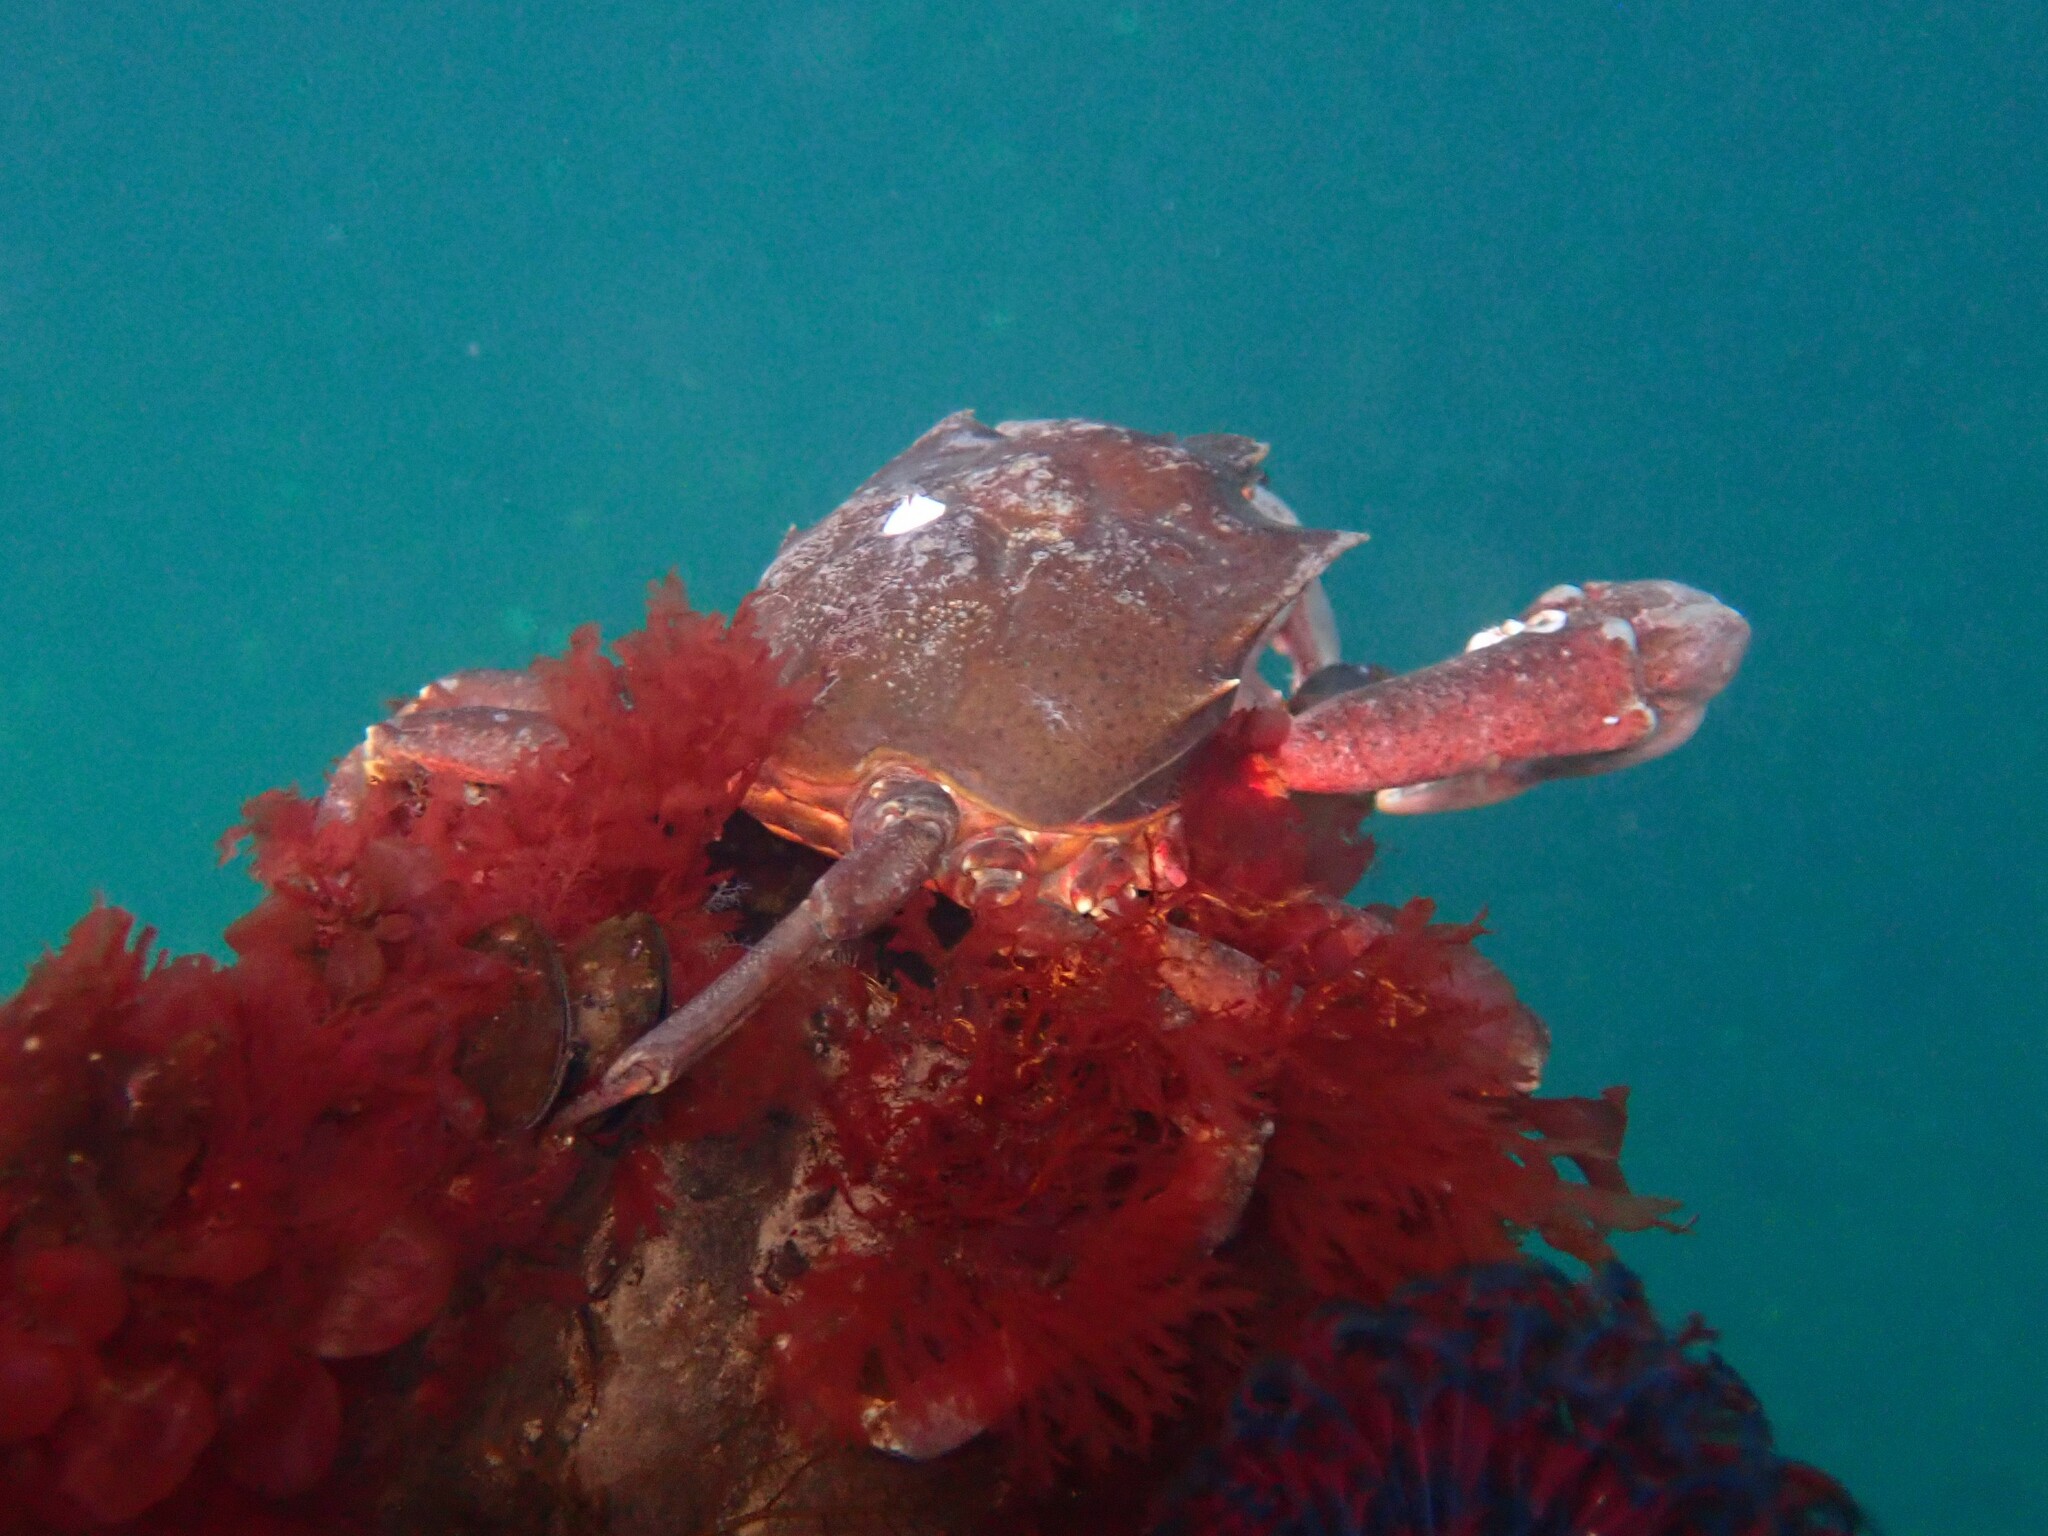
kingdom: Animalia
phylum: Arthropoda
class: Malacostraca
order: Decapoda
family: Epialtidae
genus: Pugettia
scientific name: Pugettia producta
